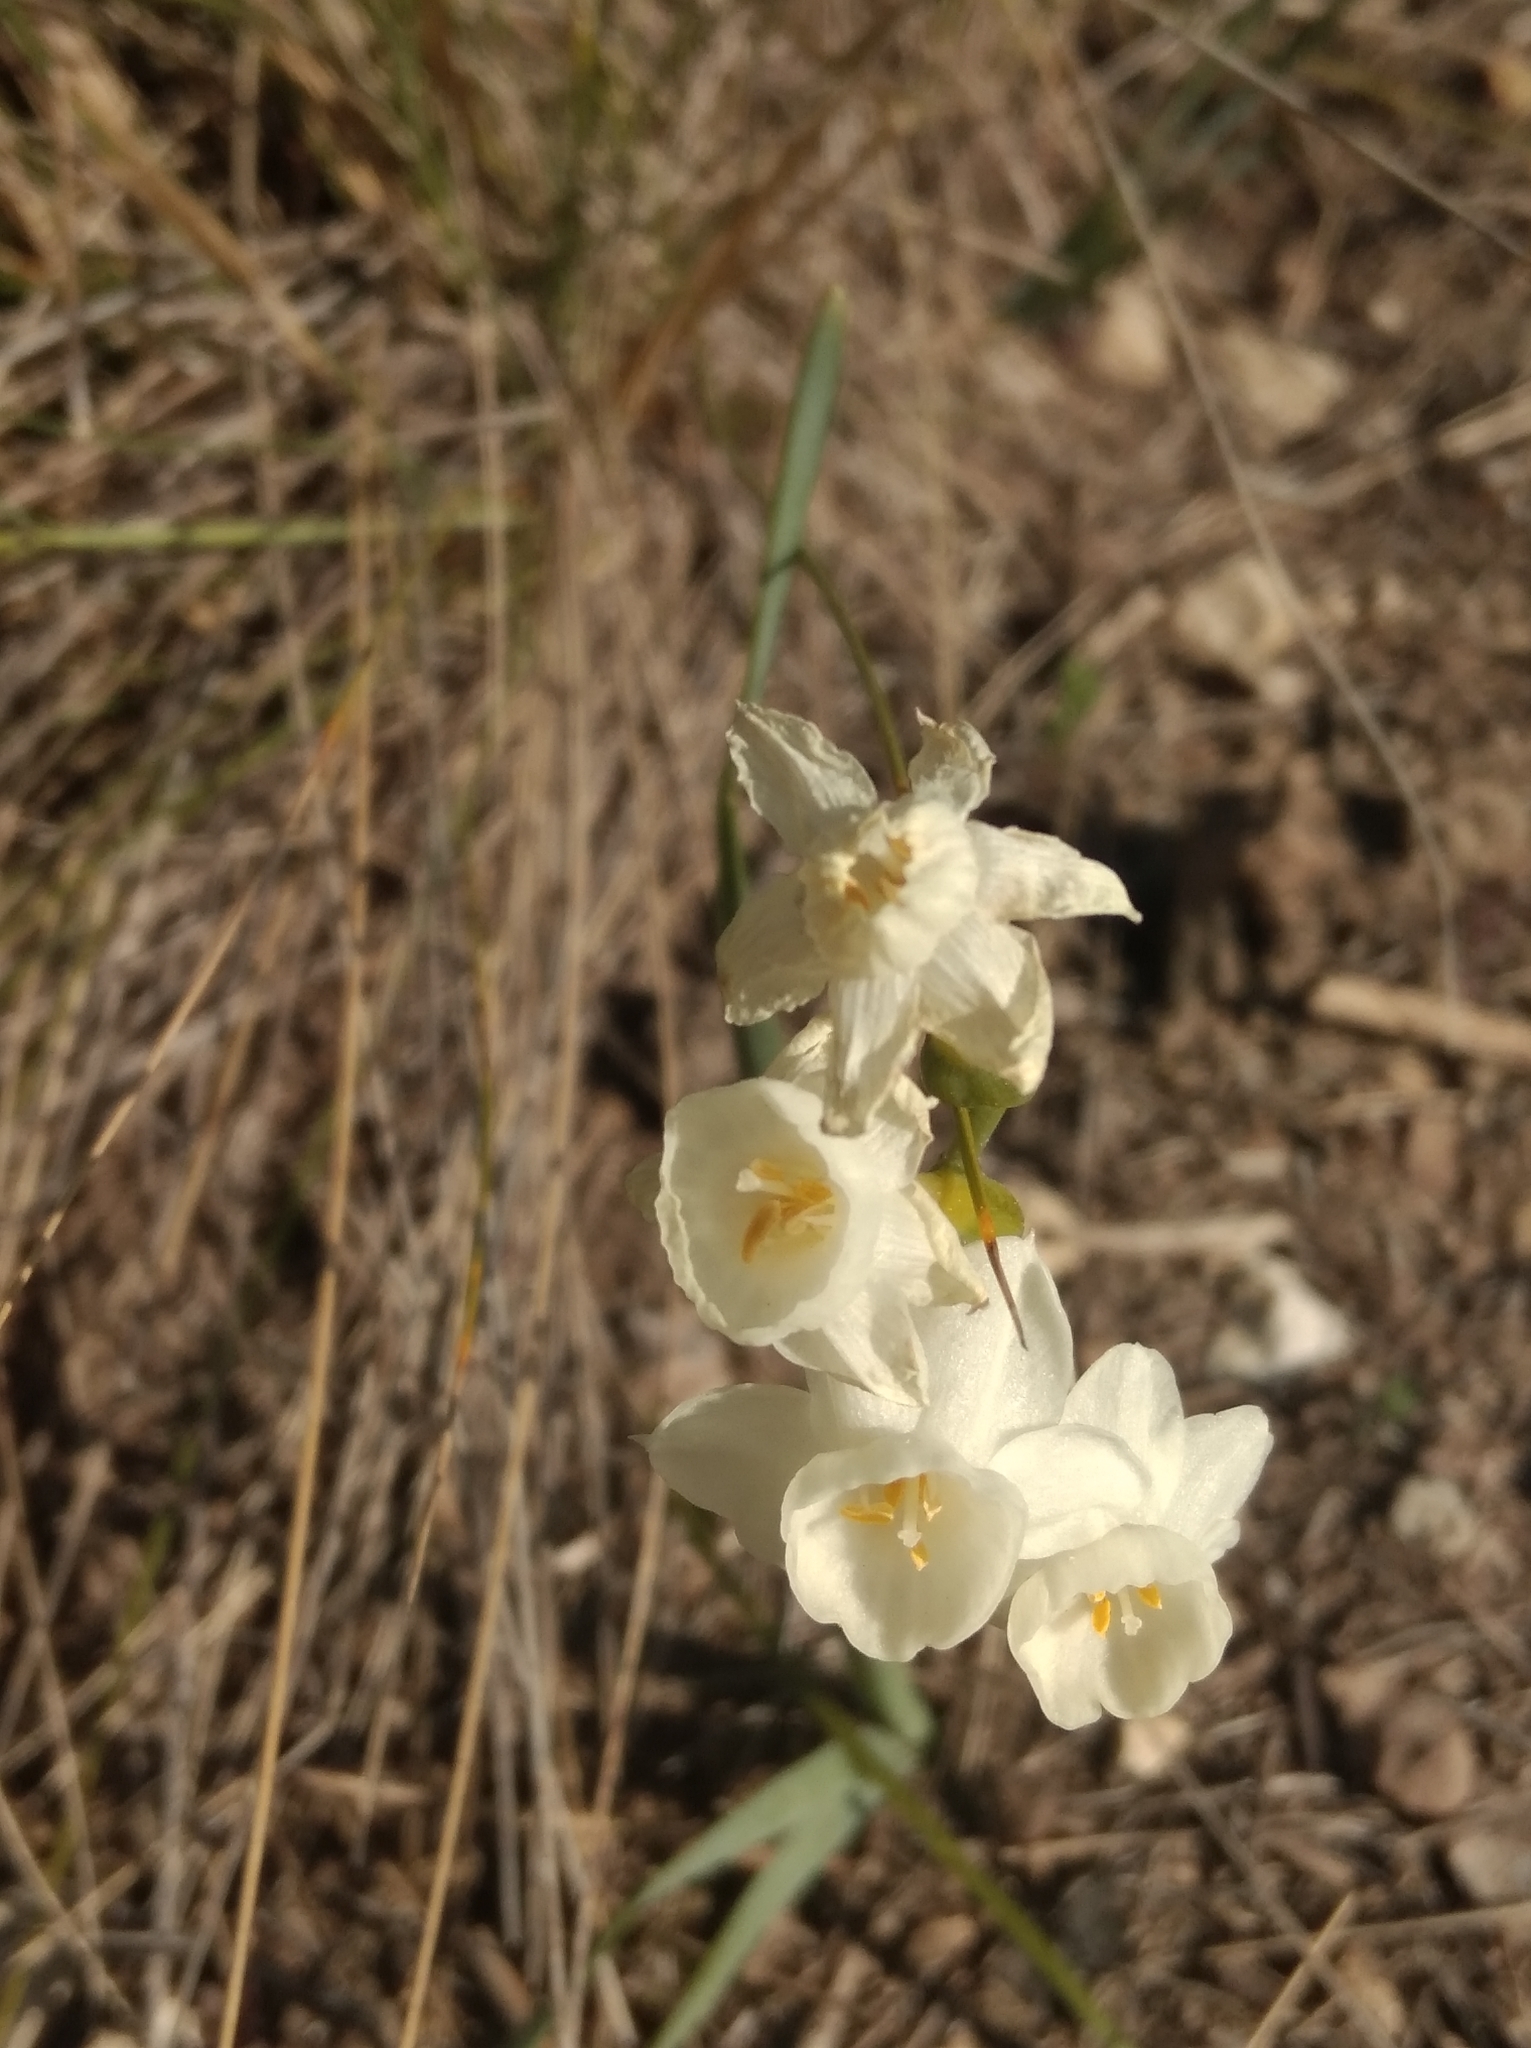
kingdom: Plantae
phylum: Tracheophyta
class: Liliopsida
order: Asparagales
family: Amaryllidaceae
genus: Narcissus
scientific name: Narcissus dubius
